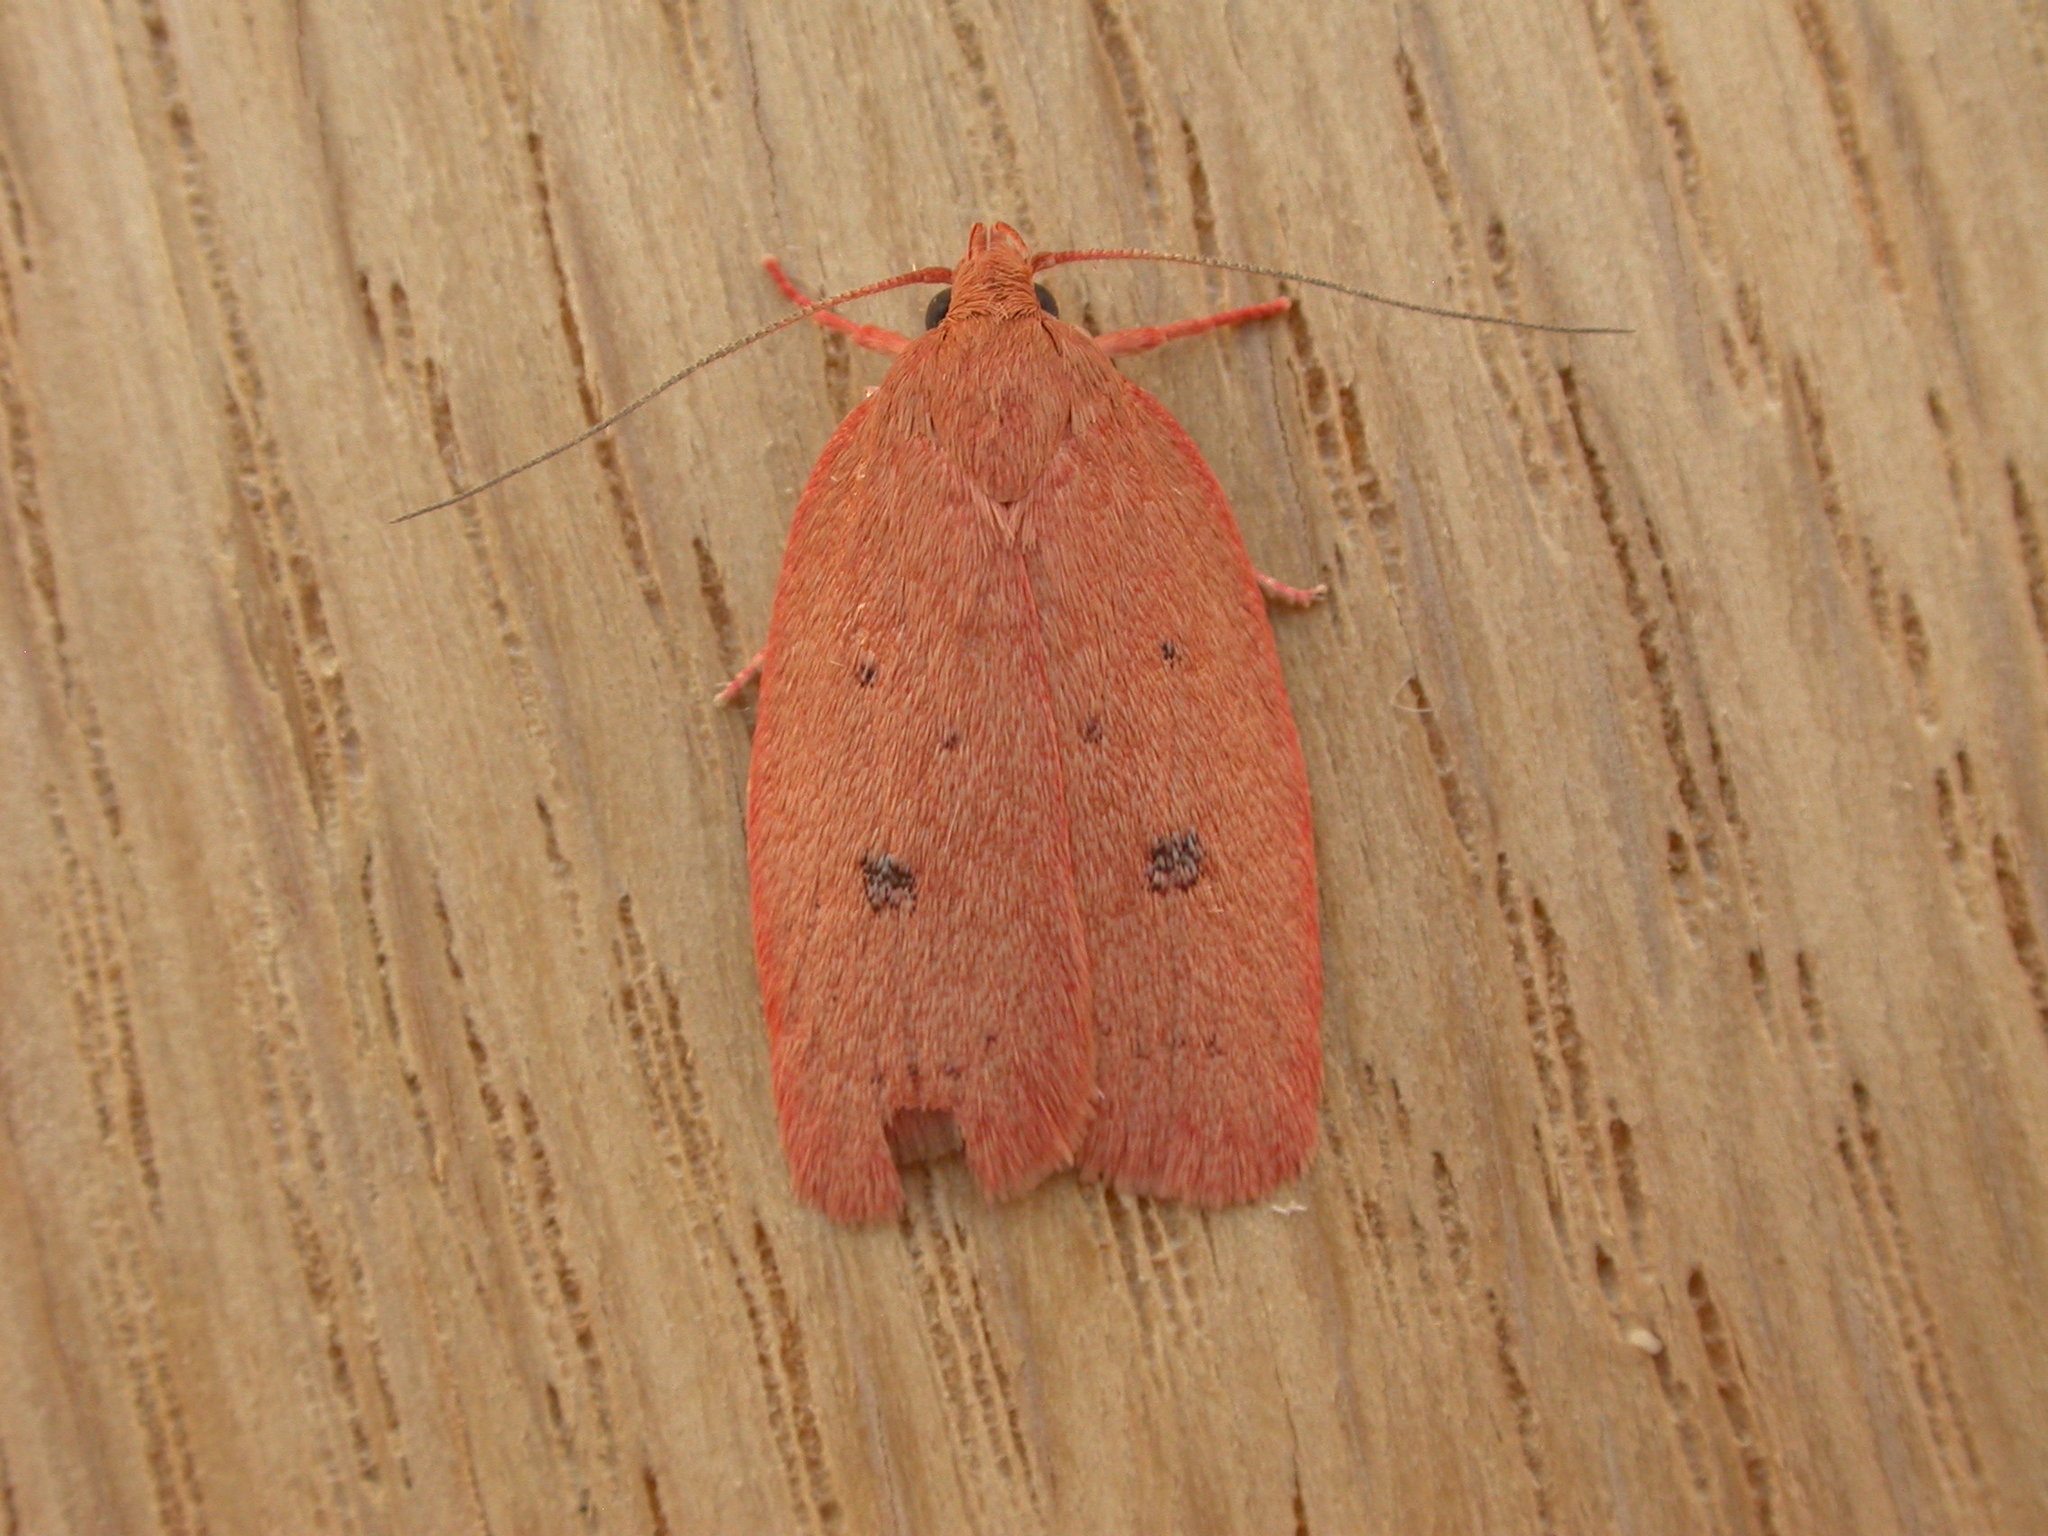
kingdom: Animalia
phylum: Arthropoda
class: Insecta
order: Lepidoptera
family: Oecophoridae
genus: Garrha
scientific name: Garrha pudica
